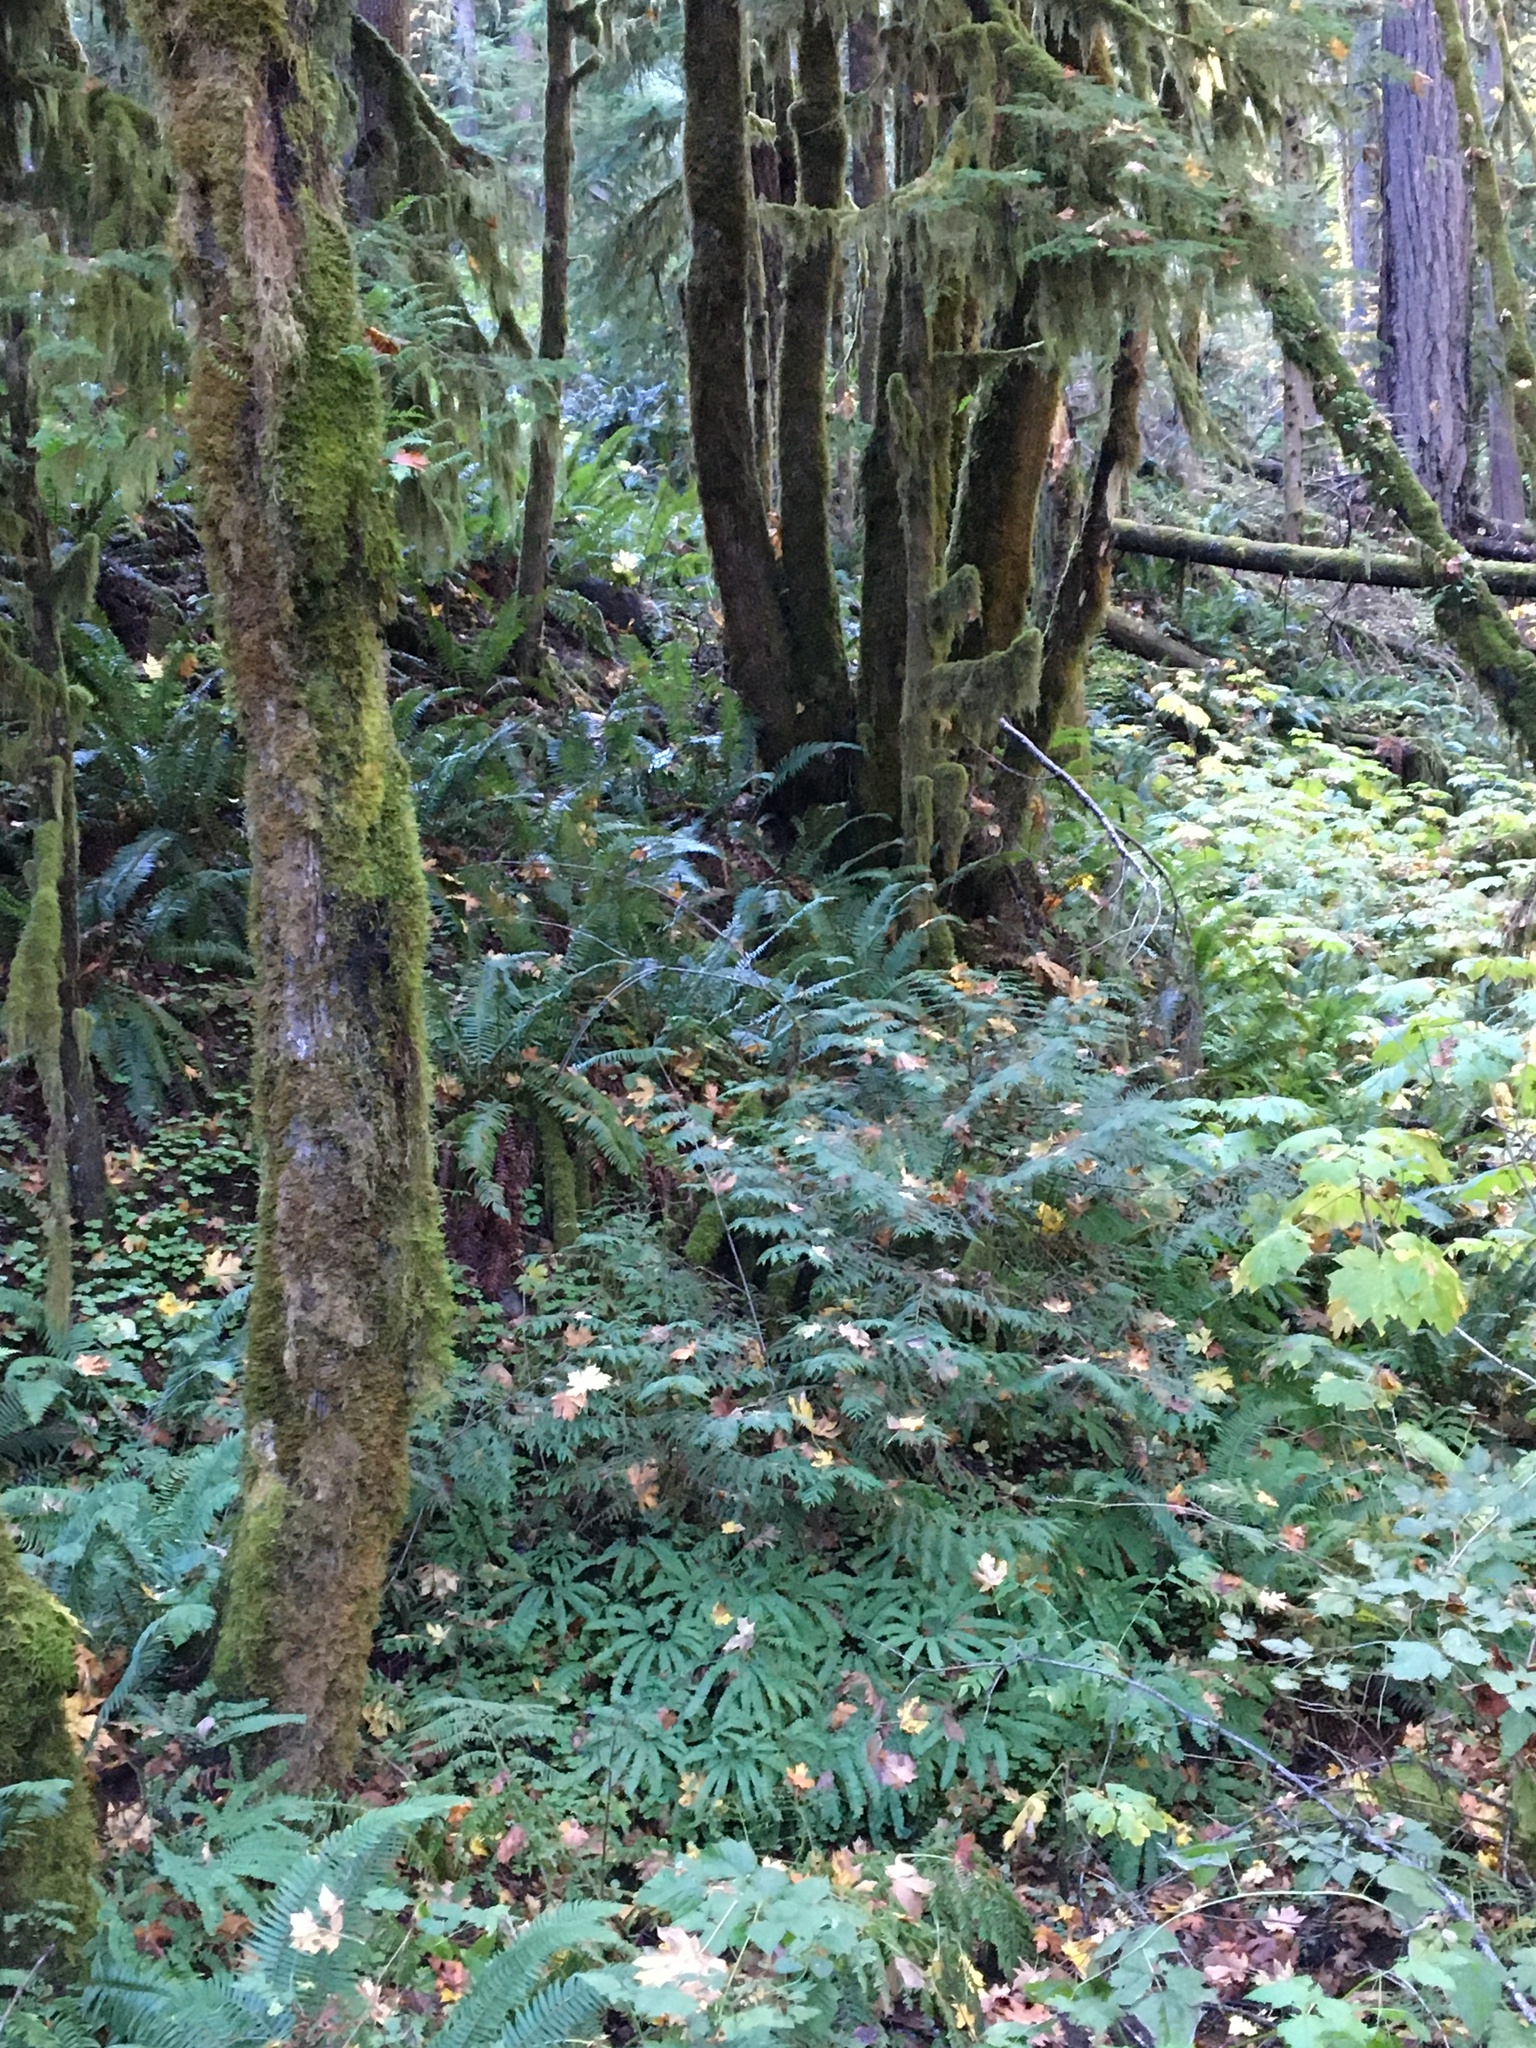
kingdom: Plantae
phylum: Tracheophyta
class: Polypodiopsida
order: Polypodiales
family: Pteridaceae
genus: Adiantum
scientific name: Adiantum aleuticum
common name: Aleutian maidenhair fern
